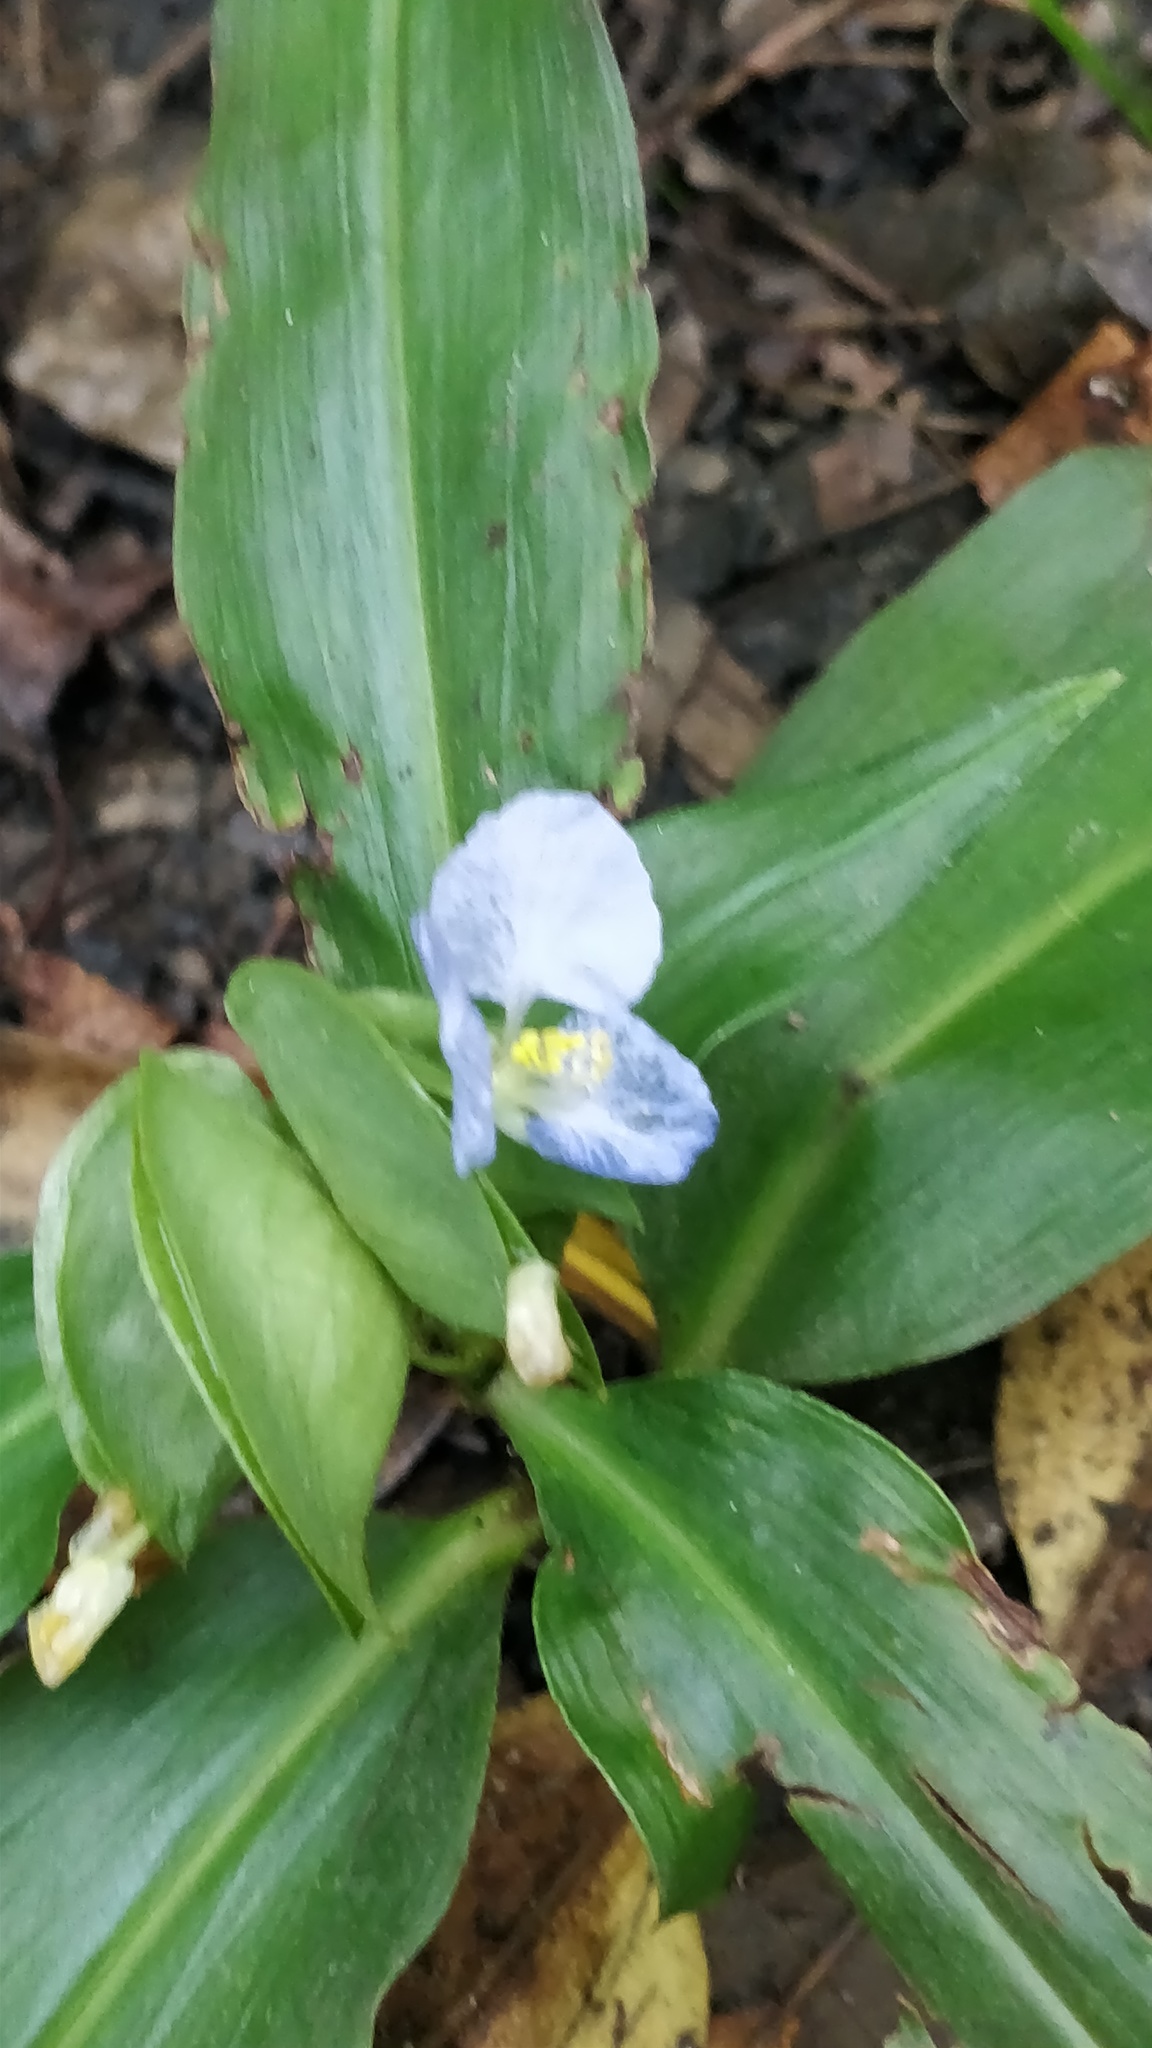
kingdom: Plantae
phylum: Tracheophyta
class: Liliopsida
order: Commelinales
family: Commelinaceae
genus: Commelina
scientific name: Commelina virginica
